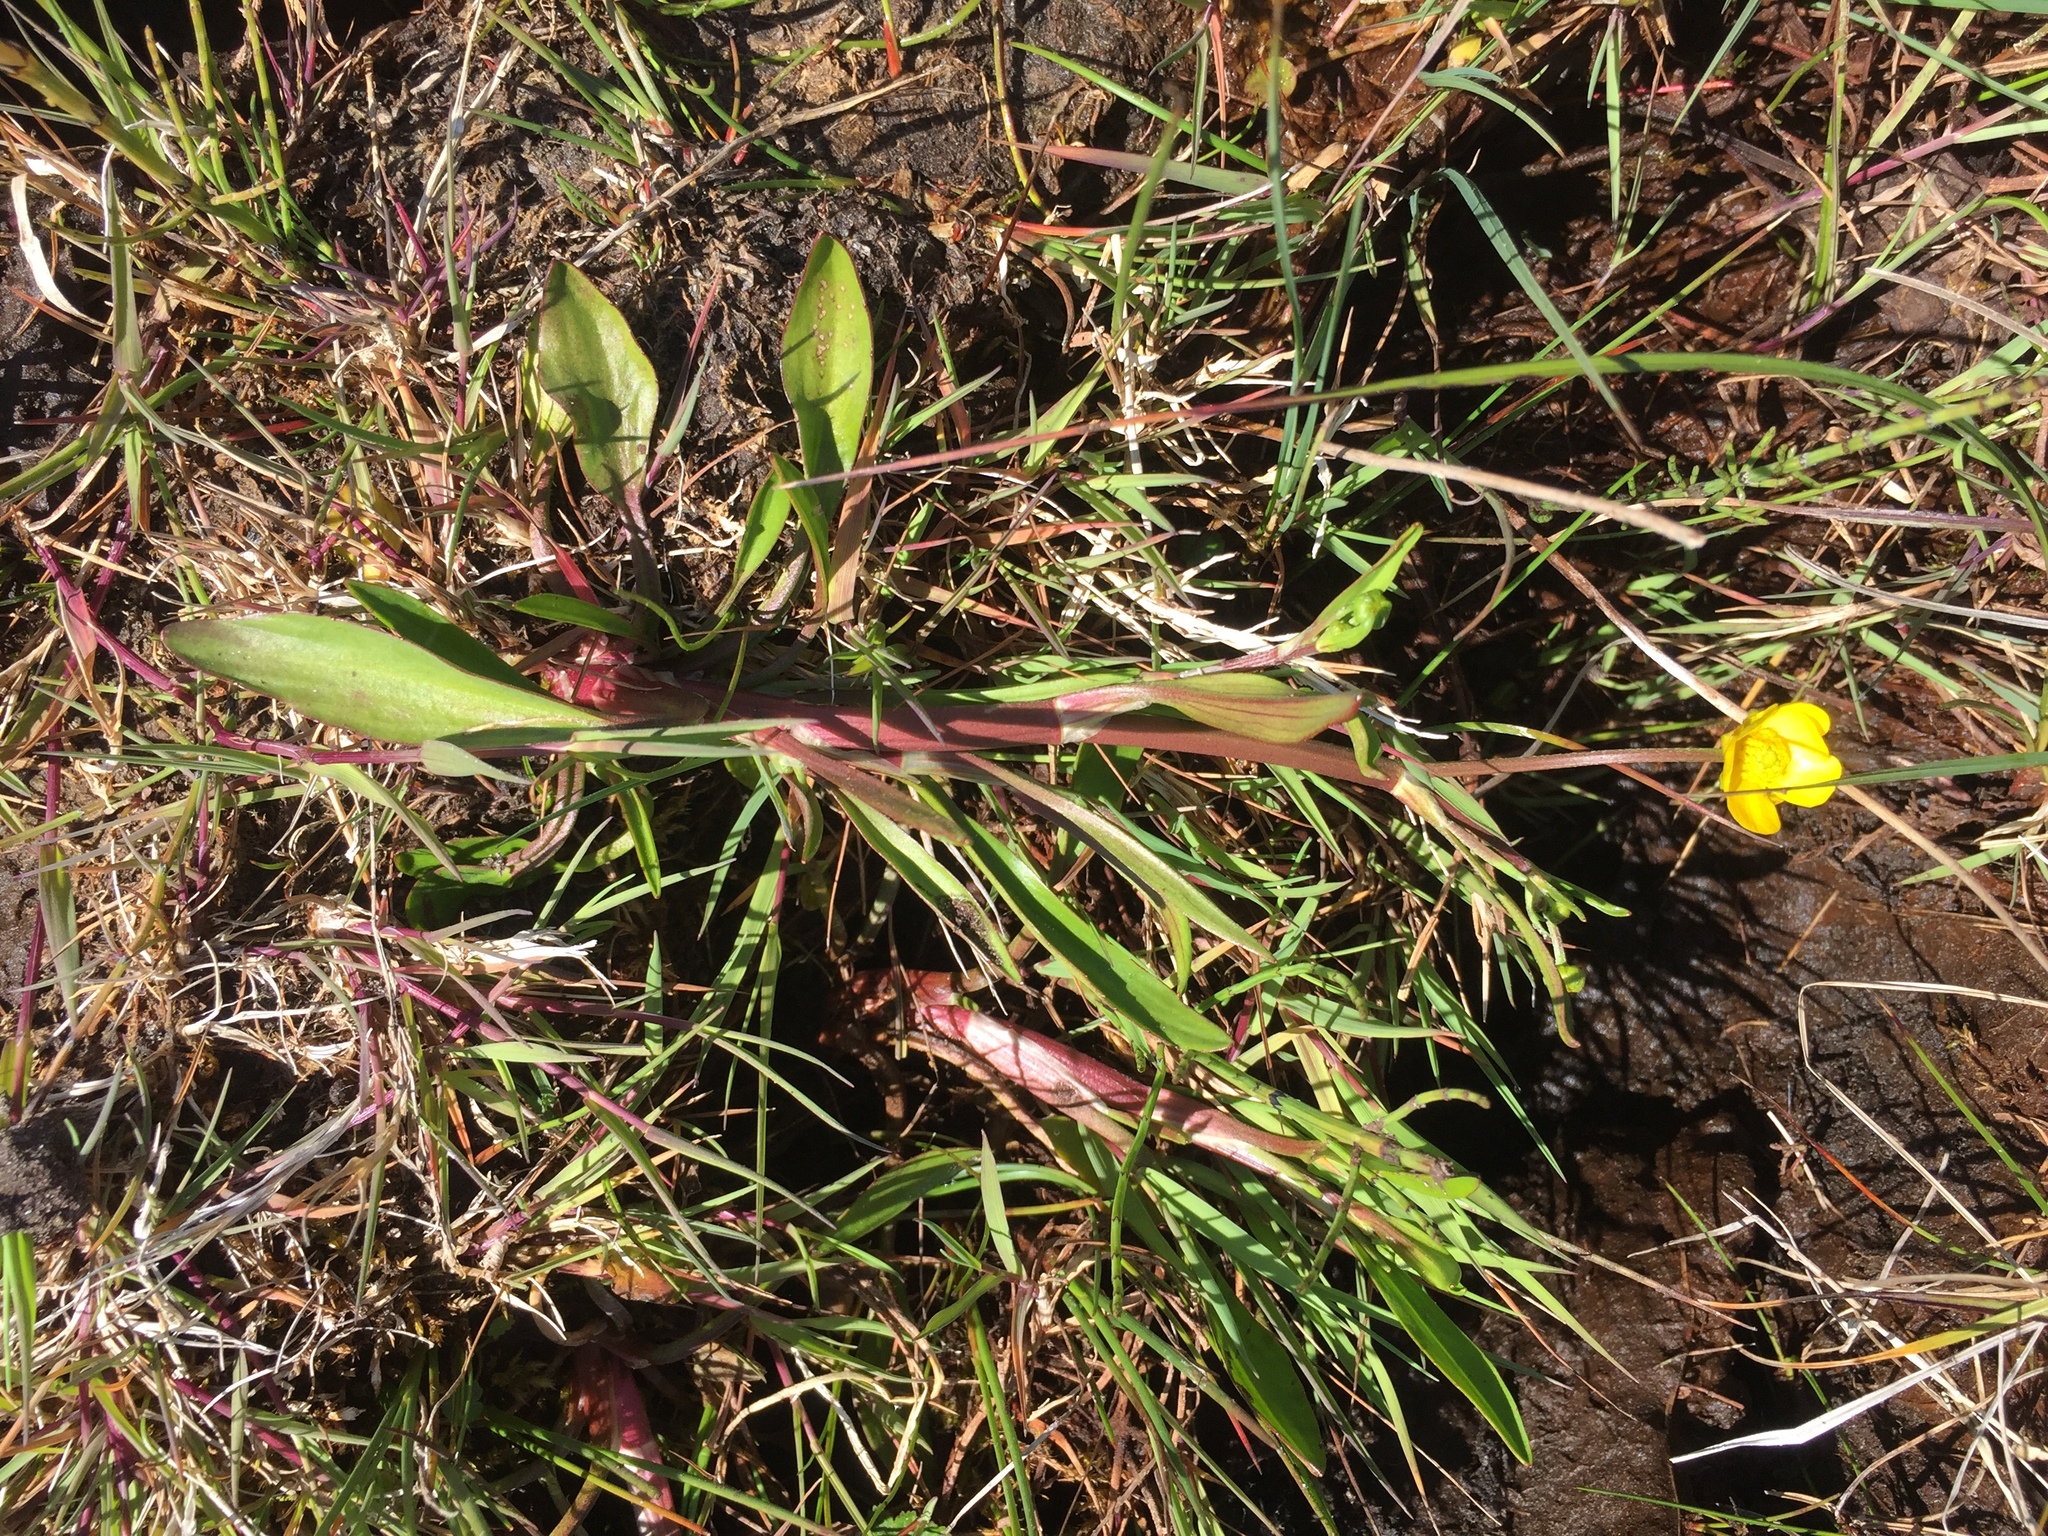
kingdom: Plantae
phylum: Tracheophyta
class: Magnoliopsida
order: Ranunculales
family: Ranunculaceae
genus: Ranunculus
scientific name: Ranunculus flammula
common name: Lesser spearwort
